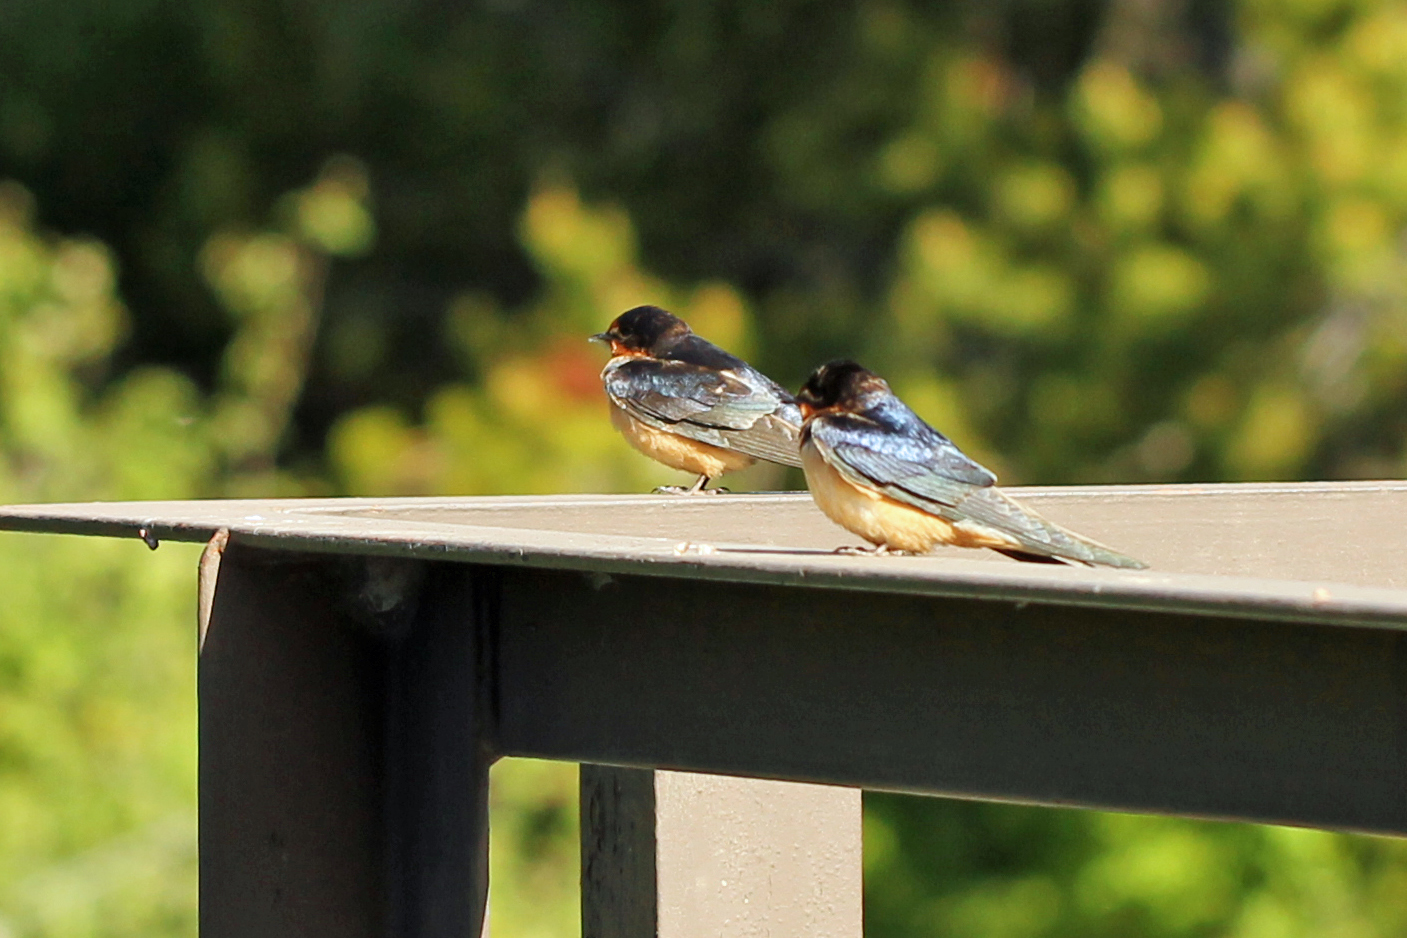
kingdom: Animalia
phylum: Chordata
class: Aves
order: Passeriformes
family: Hirundinidae
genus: Hirundo
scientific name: Hirundo rustica
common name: Barn swallow
